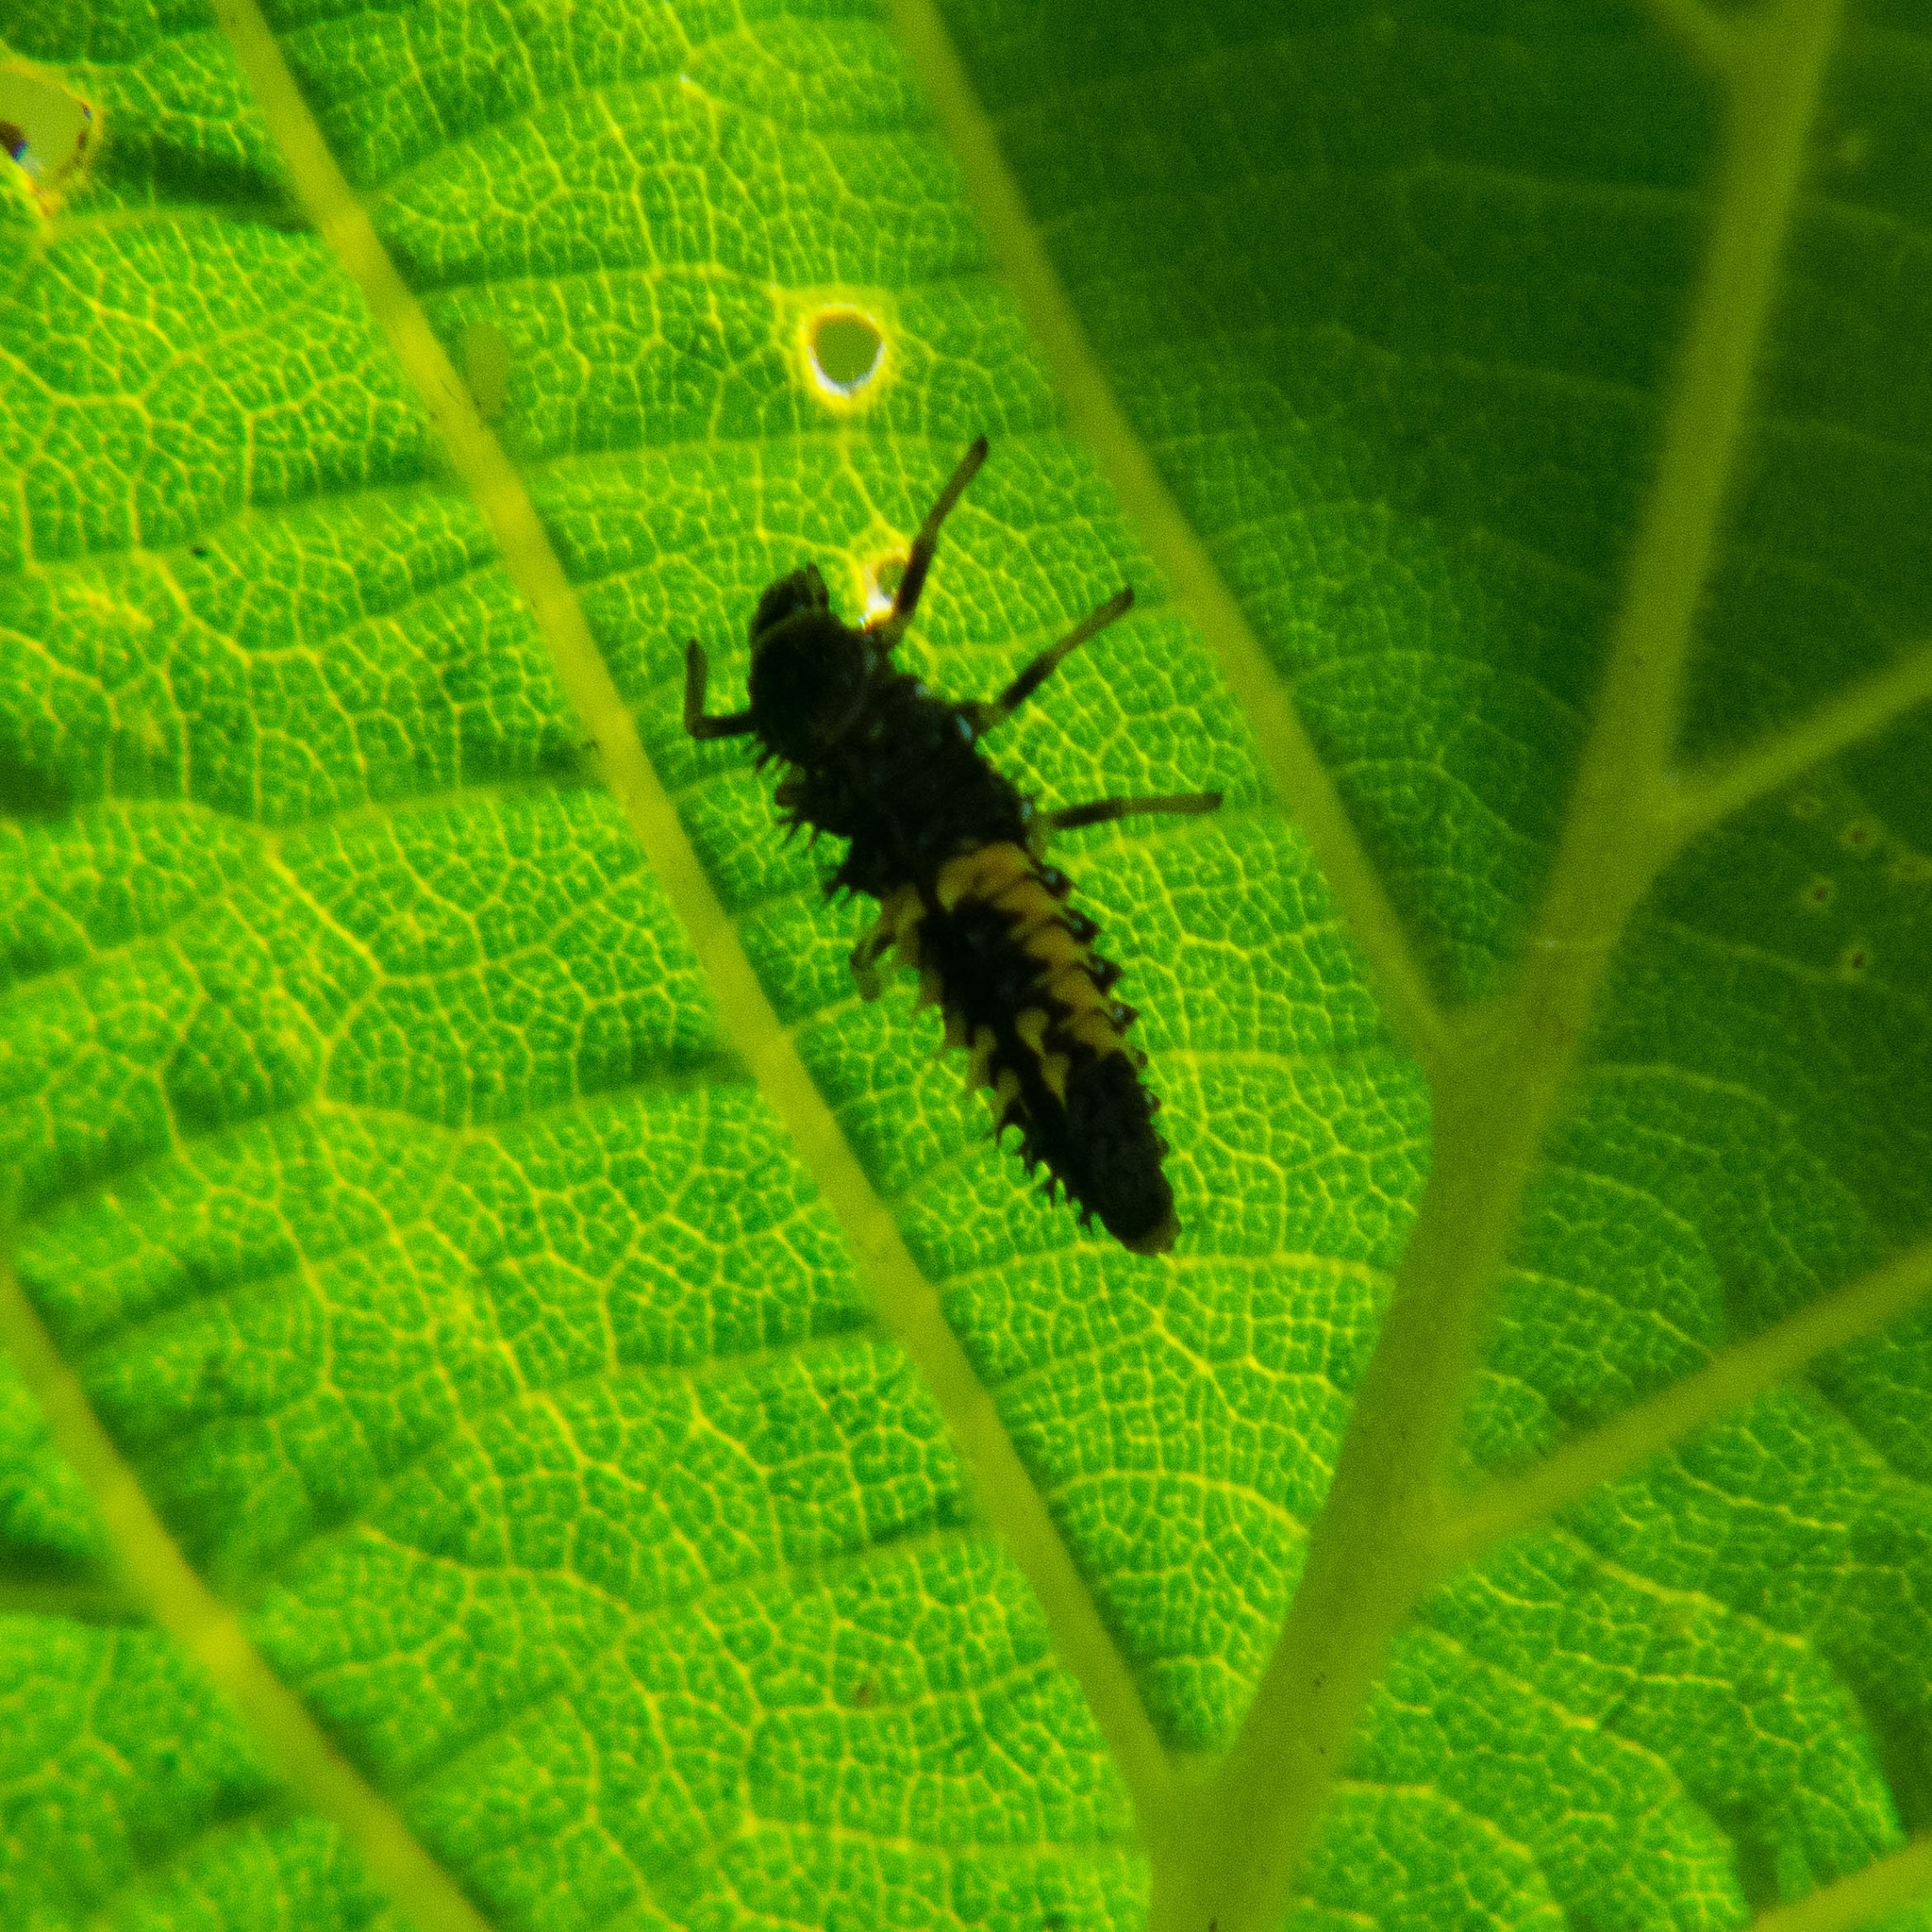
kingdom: Animalia
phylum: Arthropoda
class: Insecta
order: Coleoptera
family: Coccinellidae
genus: Harmonia
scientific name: Harmonia axyridis
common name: Harlequin ladybird
